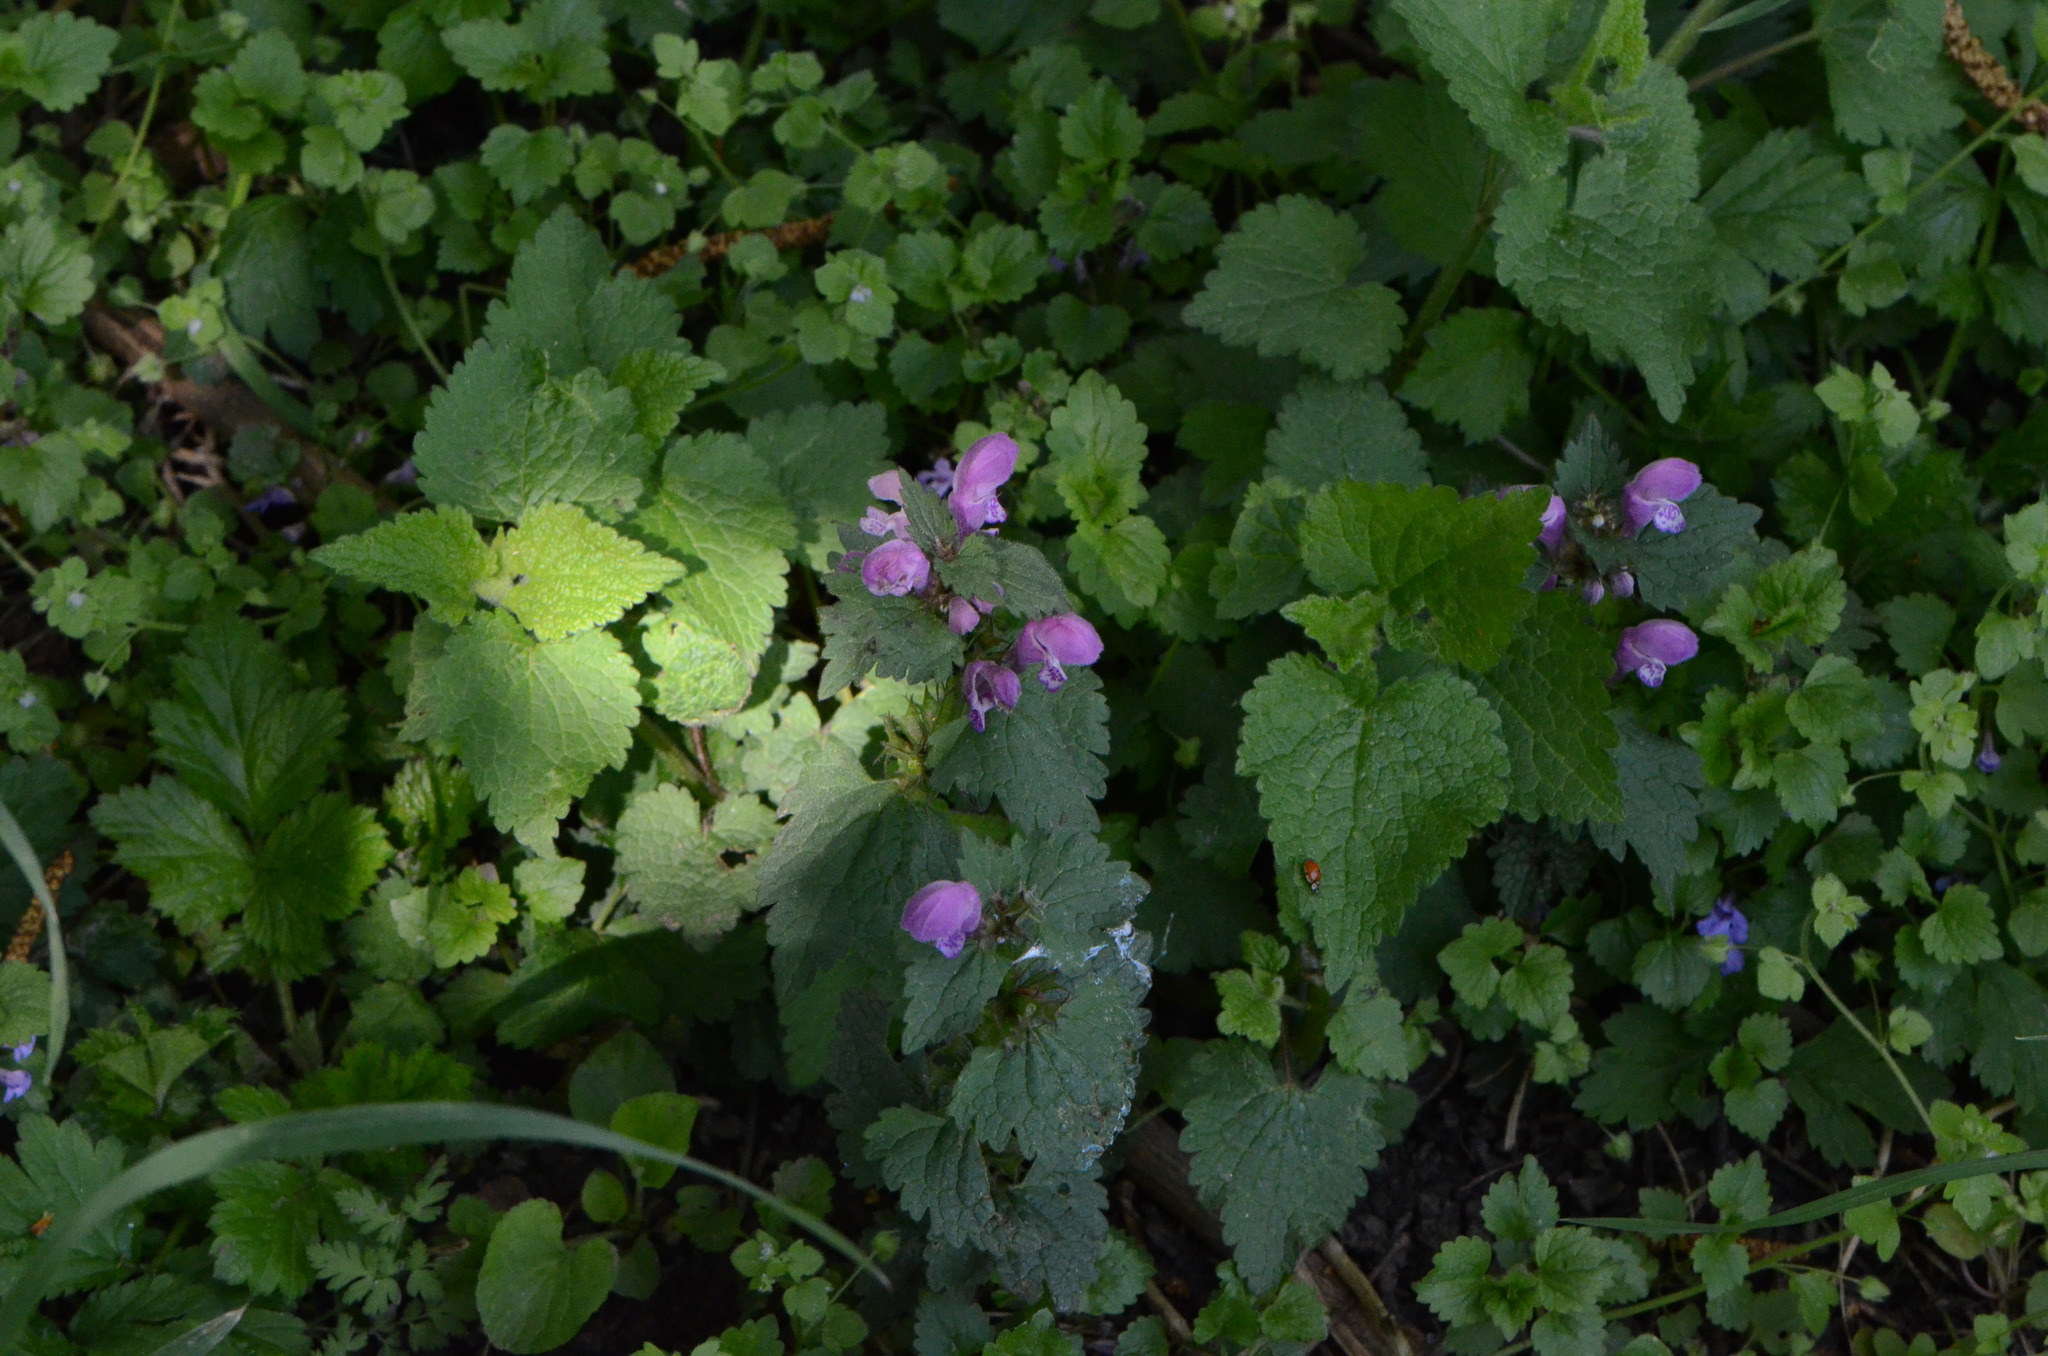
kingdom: Plantae
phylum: Tracheophyta
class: Magnoliopsida
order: Lamiales
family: Lamiaceae
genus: Lamium
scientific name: Lamium maculatum
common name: Spotted dead-nettle
